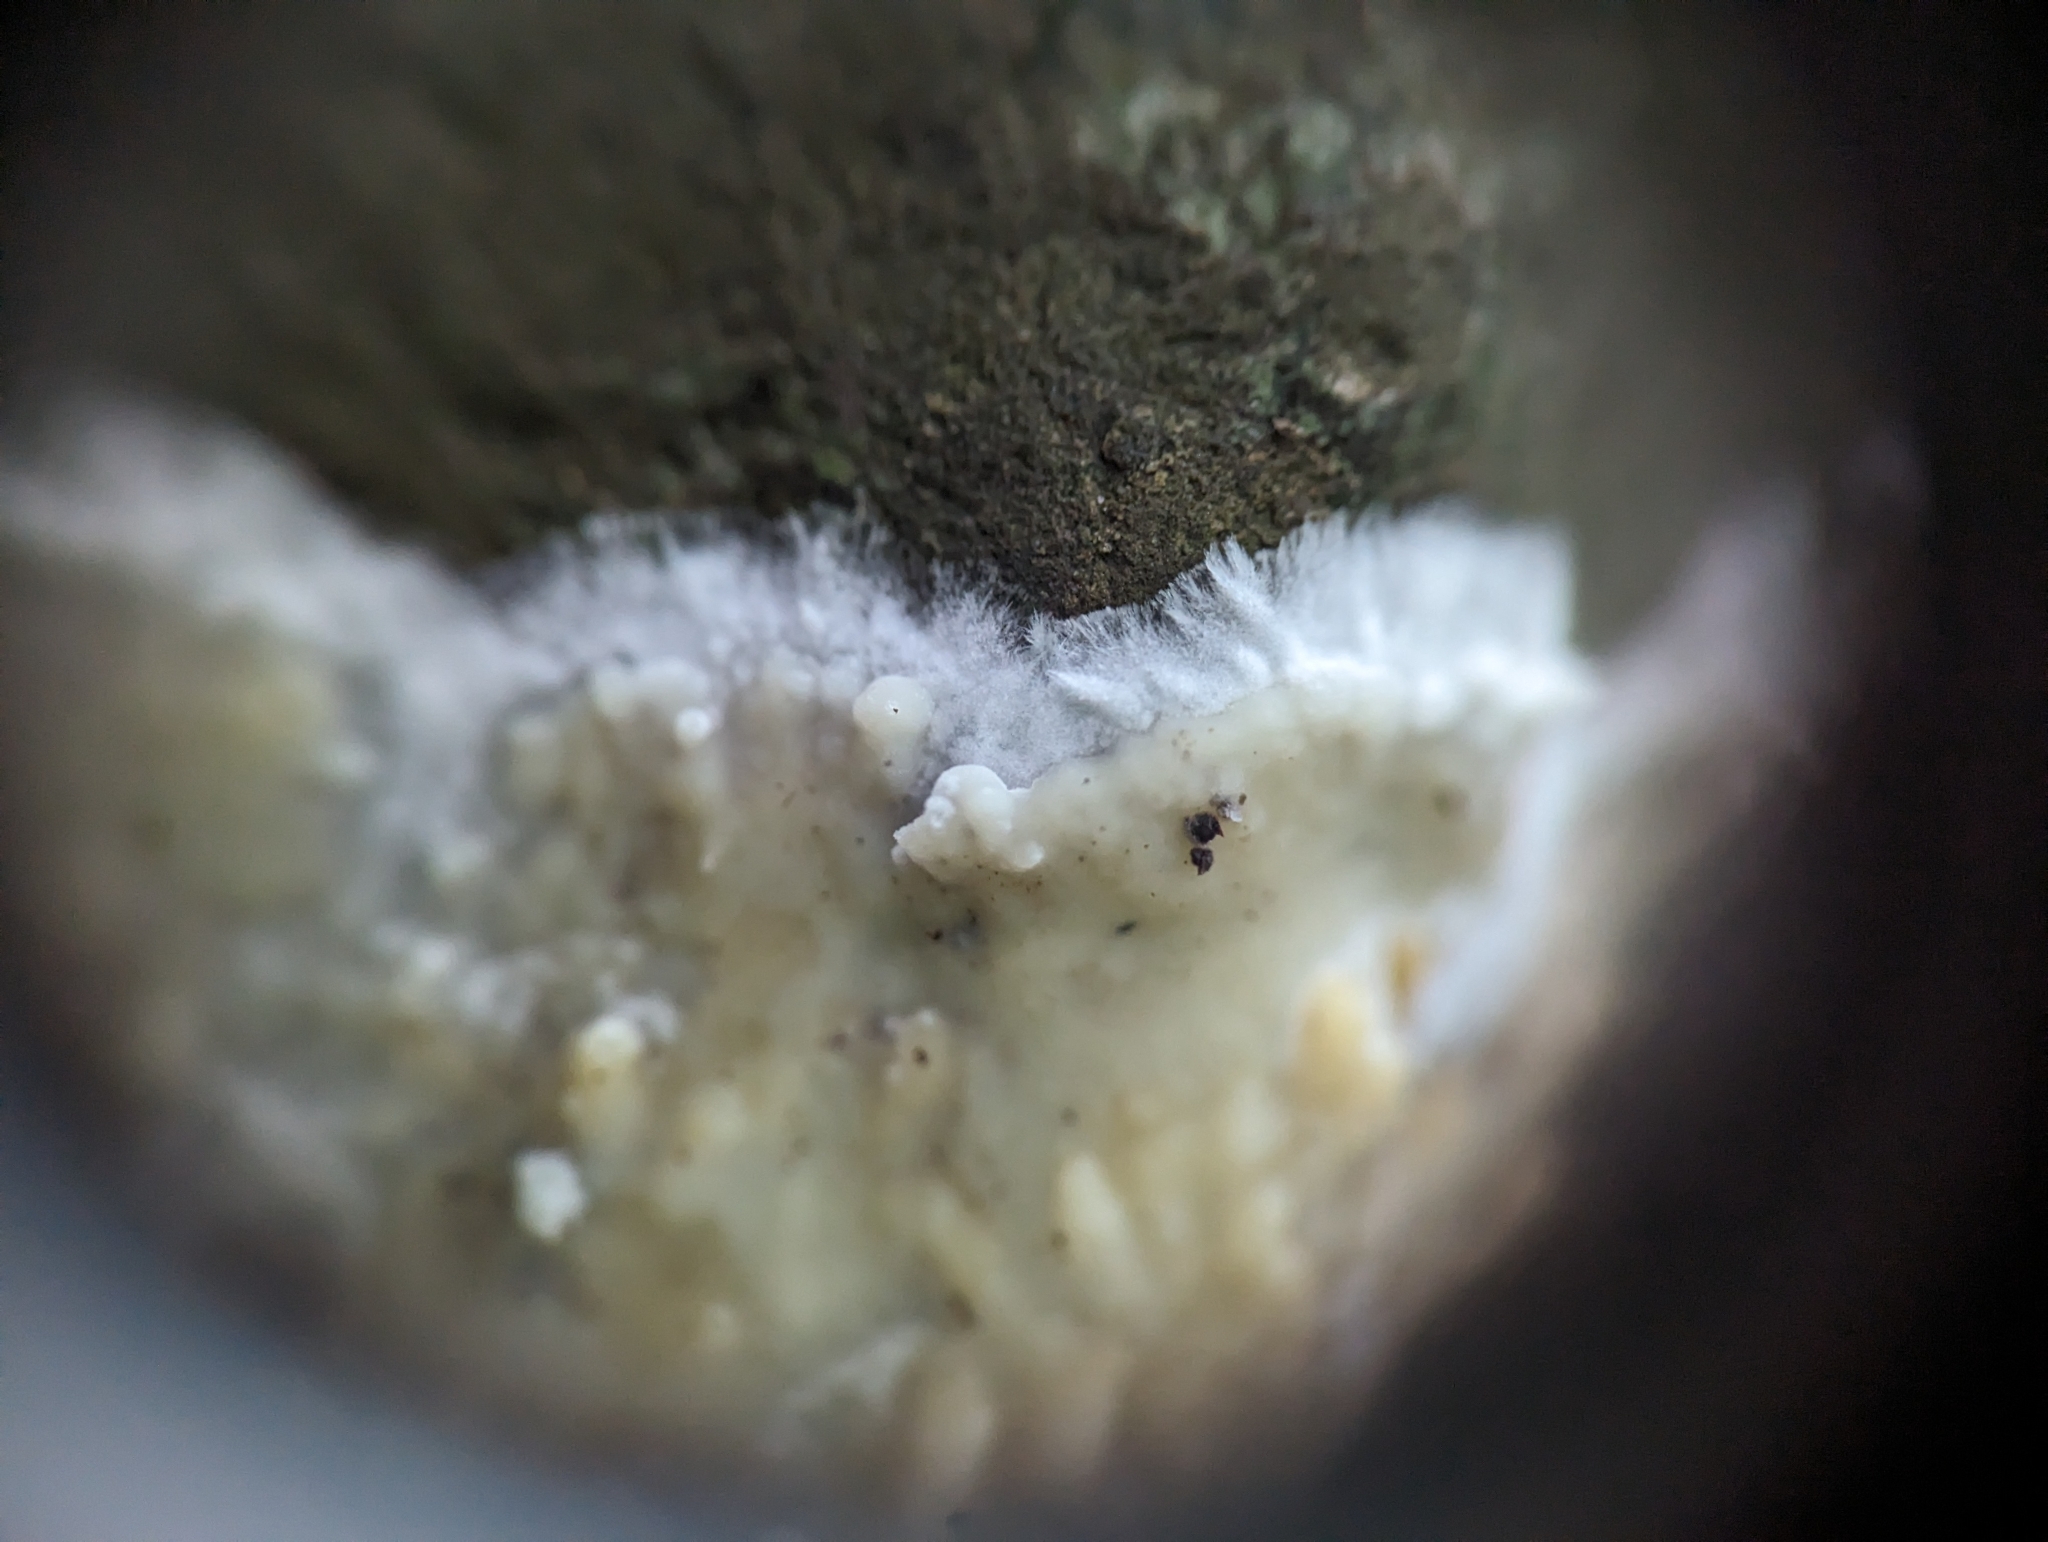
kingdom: Fungi
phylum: Basidiomycota
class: Agaricomycetes
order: Sebacinales
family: Sebacinaceae
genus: Sebacina
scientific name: Sebacina incrustans
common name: Enveloping crust
